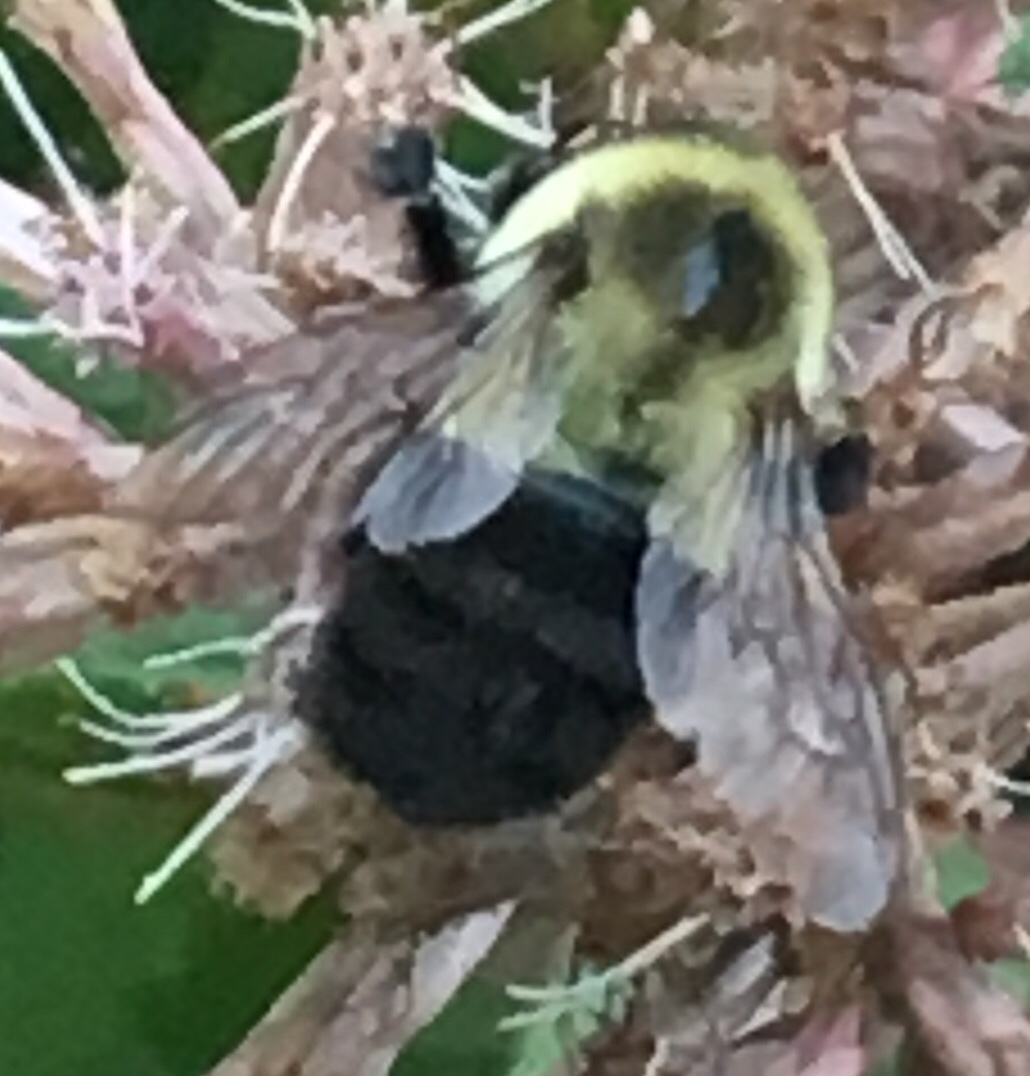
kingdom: Animalia
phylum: Arthropoda
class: Insecta
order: Hymenoptera
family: Apidae
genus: Bombus
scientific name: Bombus impatiens
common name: Common eastern bumble bee
